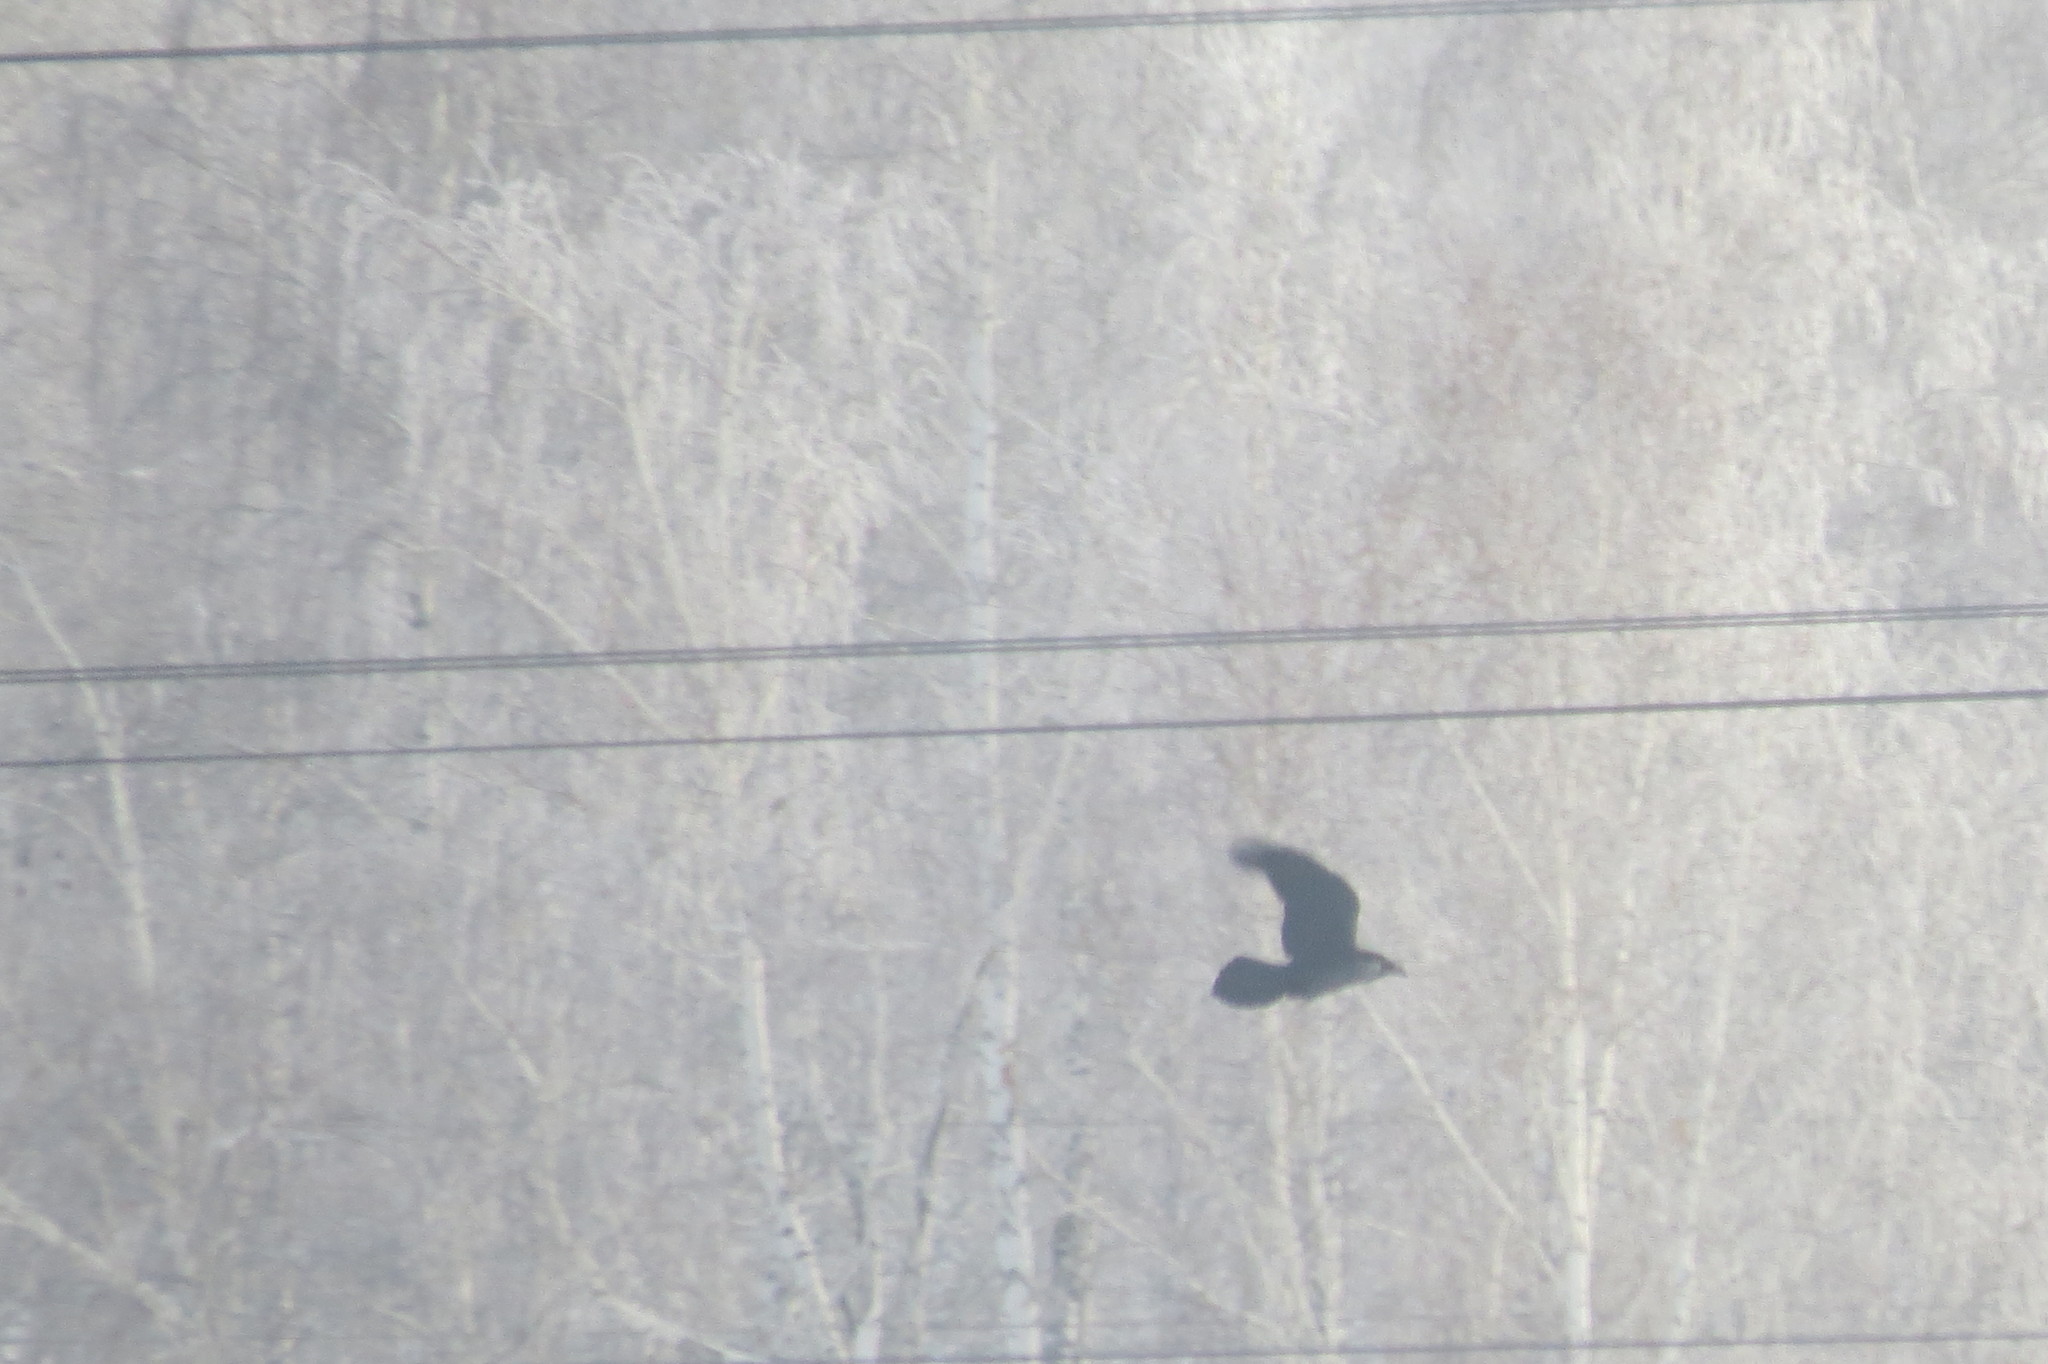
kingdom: Animalia
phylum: Chordata
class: Aves
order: Passeriformes
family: Corvidae
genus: Corvus
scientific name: Corvus corax
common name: Common raven
